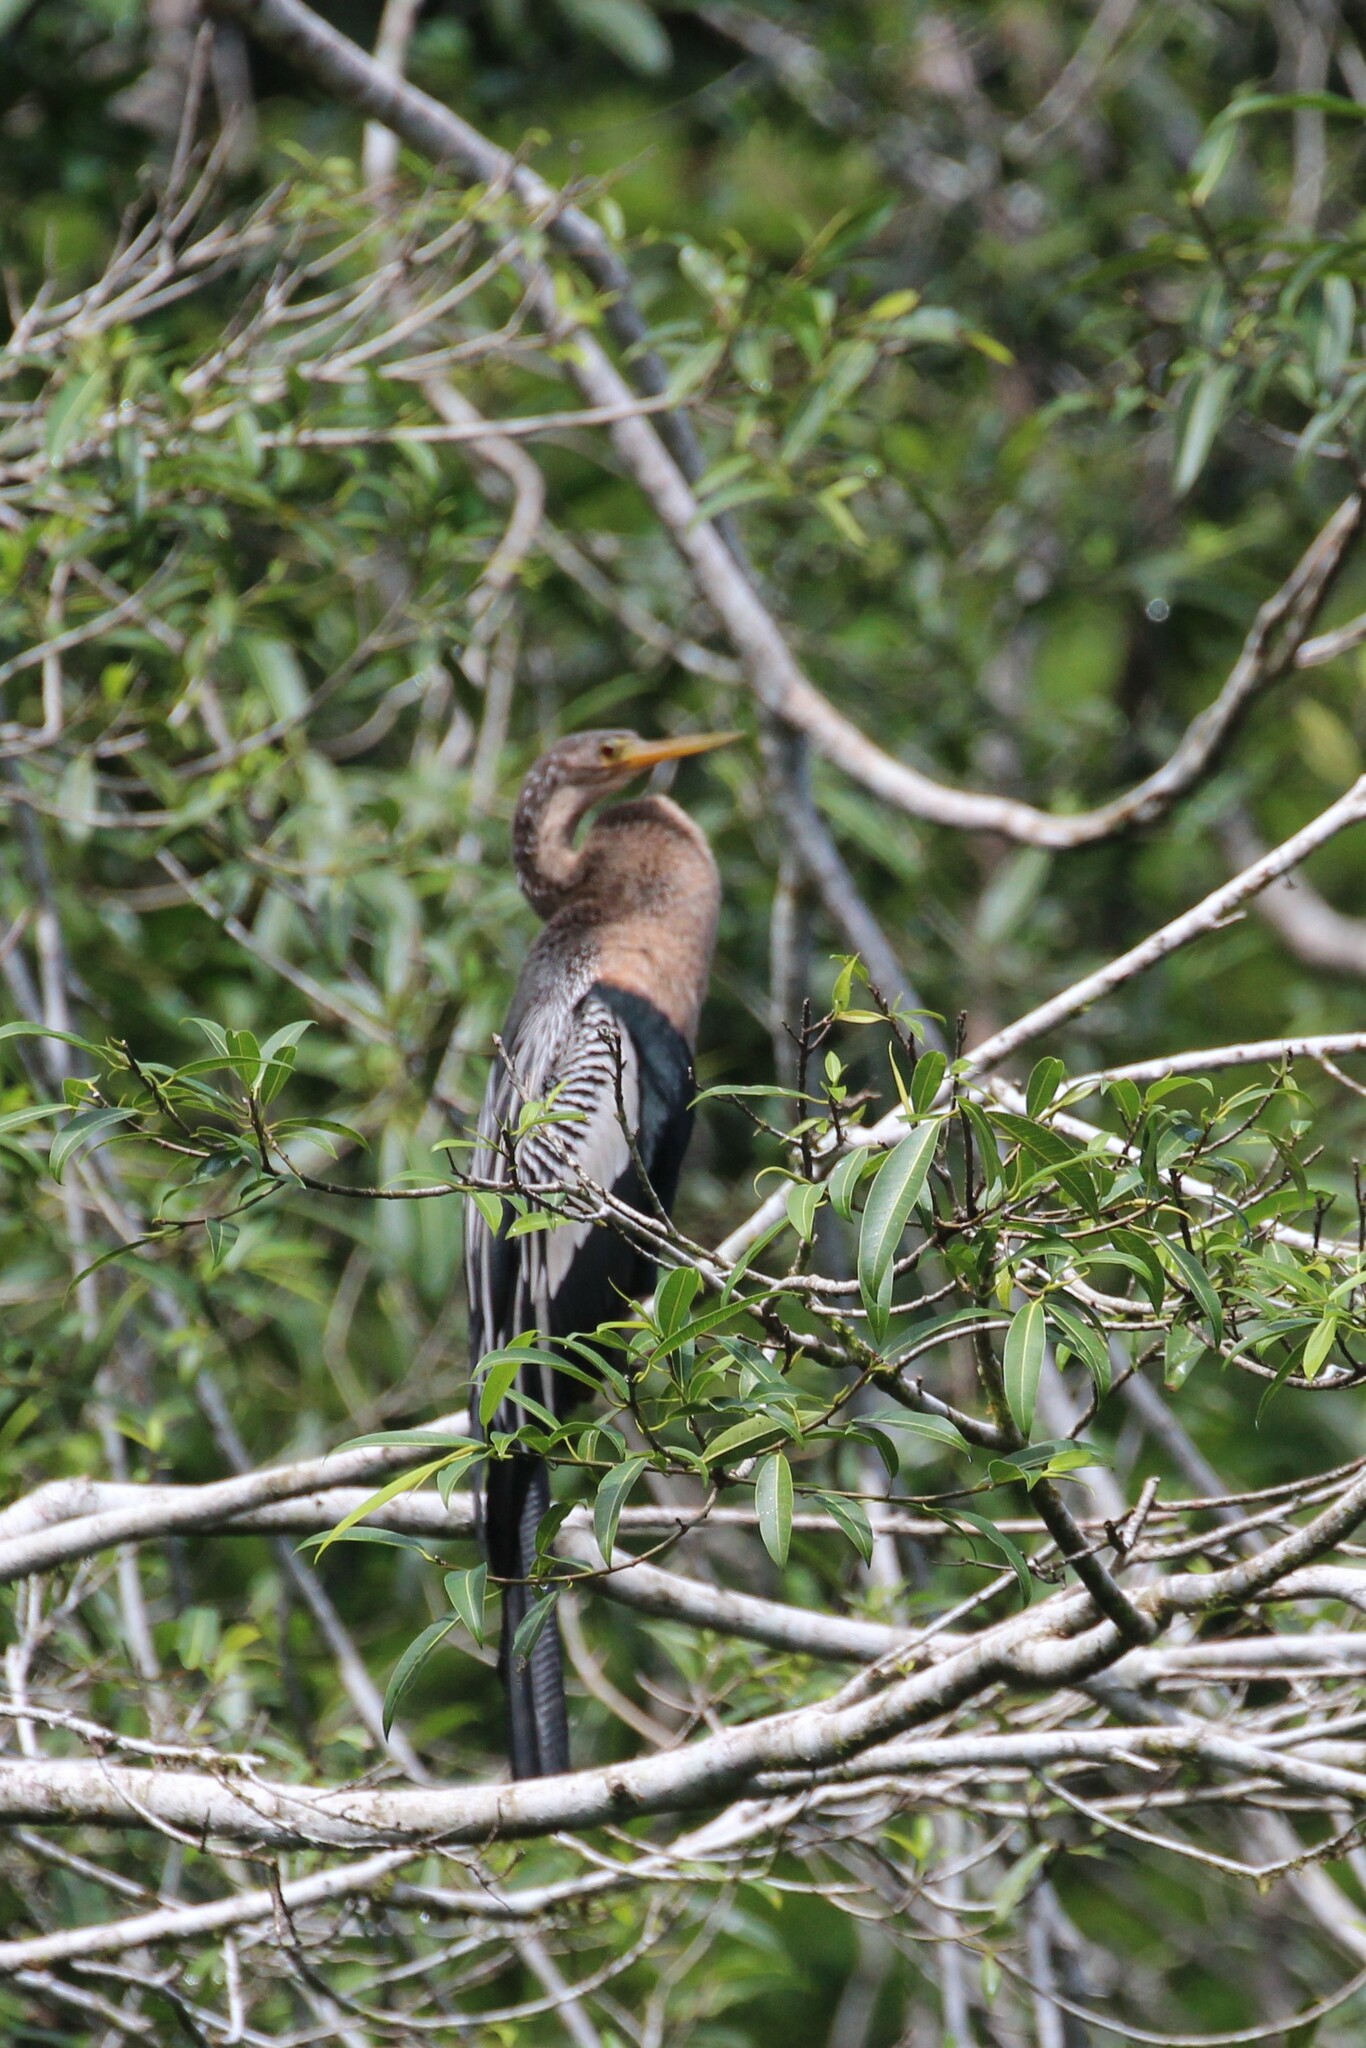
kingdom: Animalia
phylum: Chordata
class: Aves
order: Suliformes
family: Anhingidae
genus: Anhinga
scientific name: Anhinga anhinga
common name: Anhinga
